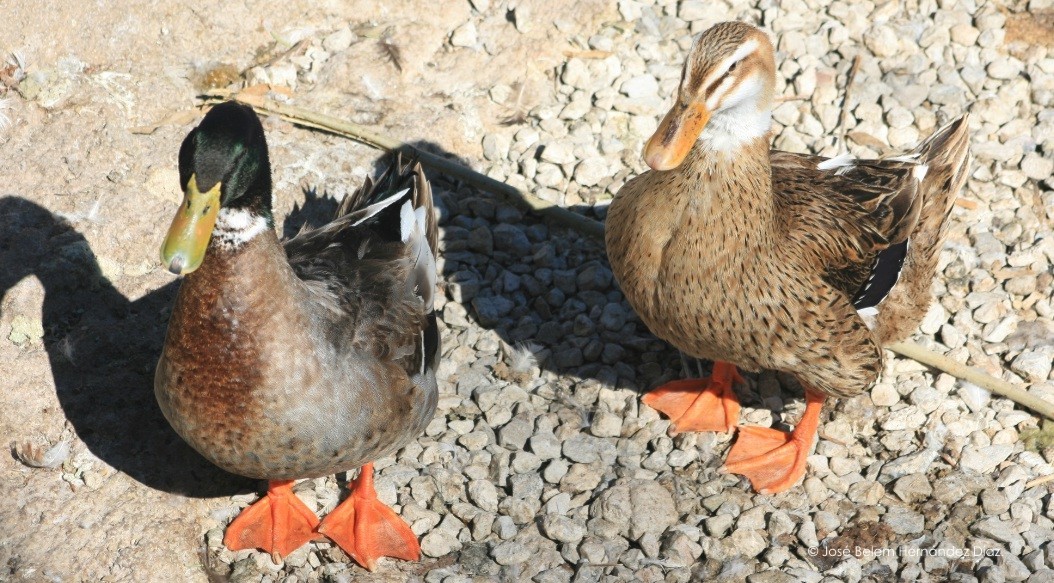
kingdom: Animalia
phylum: Chordata
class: Aves
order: Anseriformes
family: Anatidae
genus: Anas
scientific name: Anas platyrhynchos
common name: Mallard
